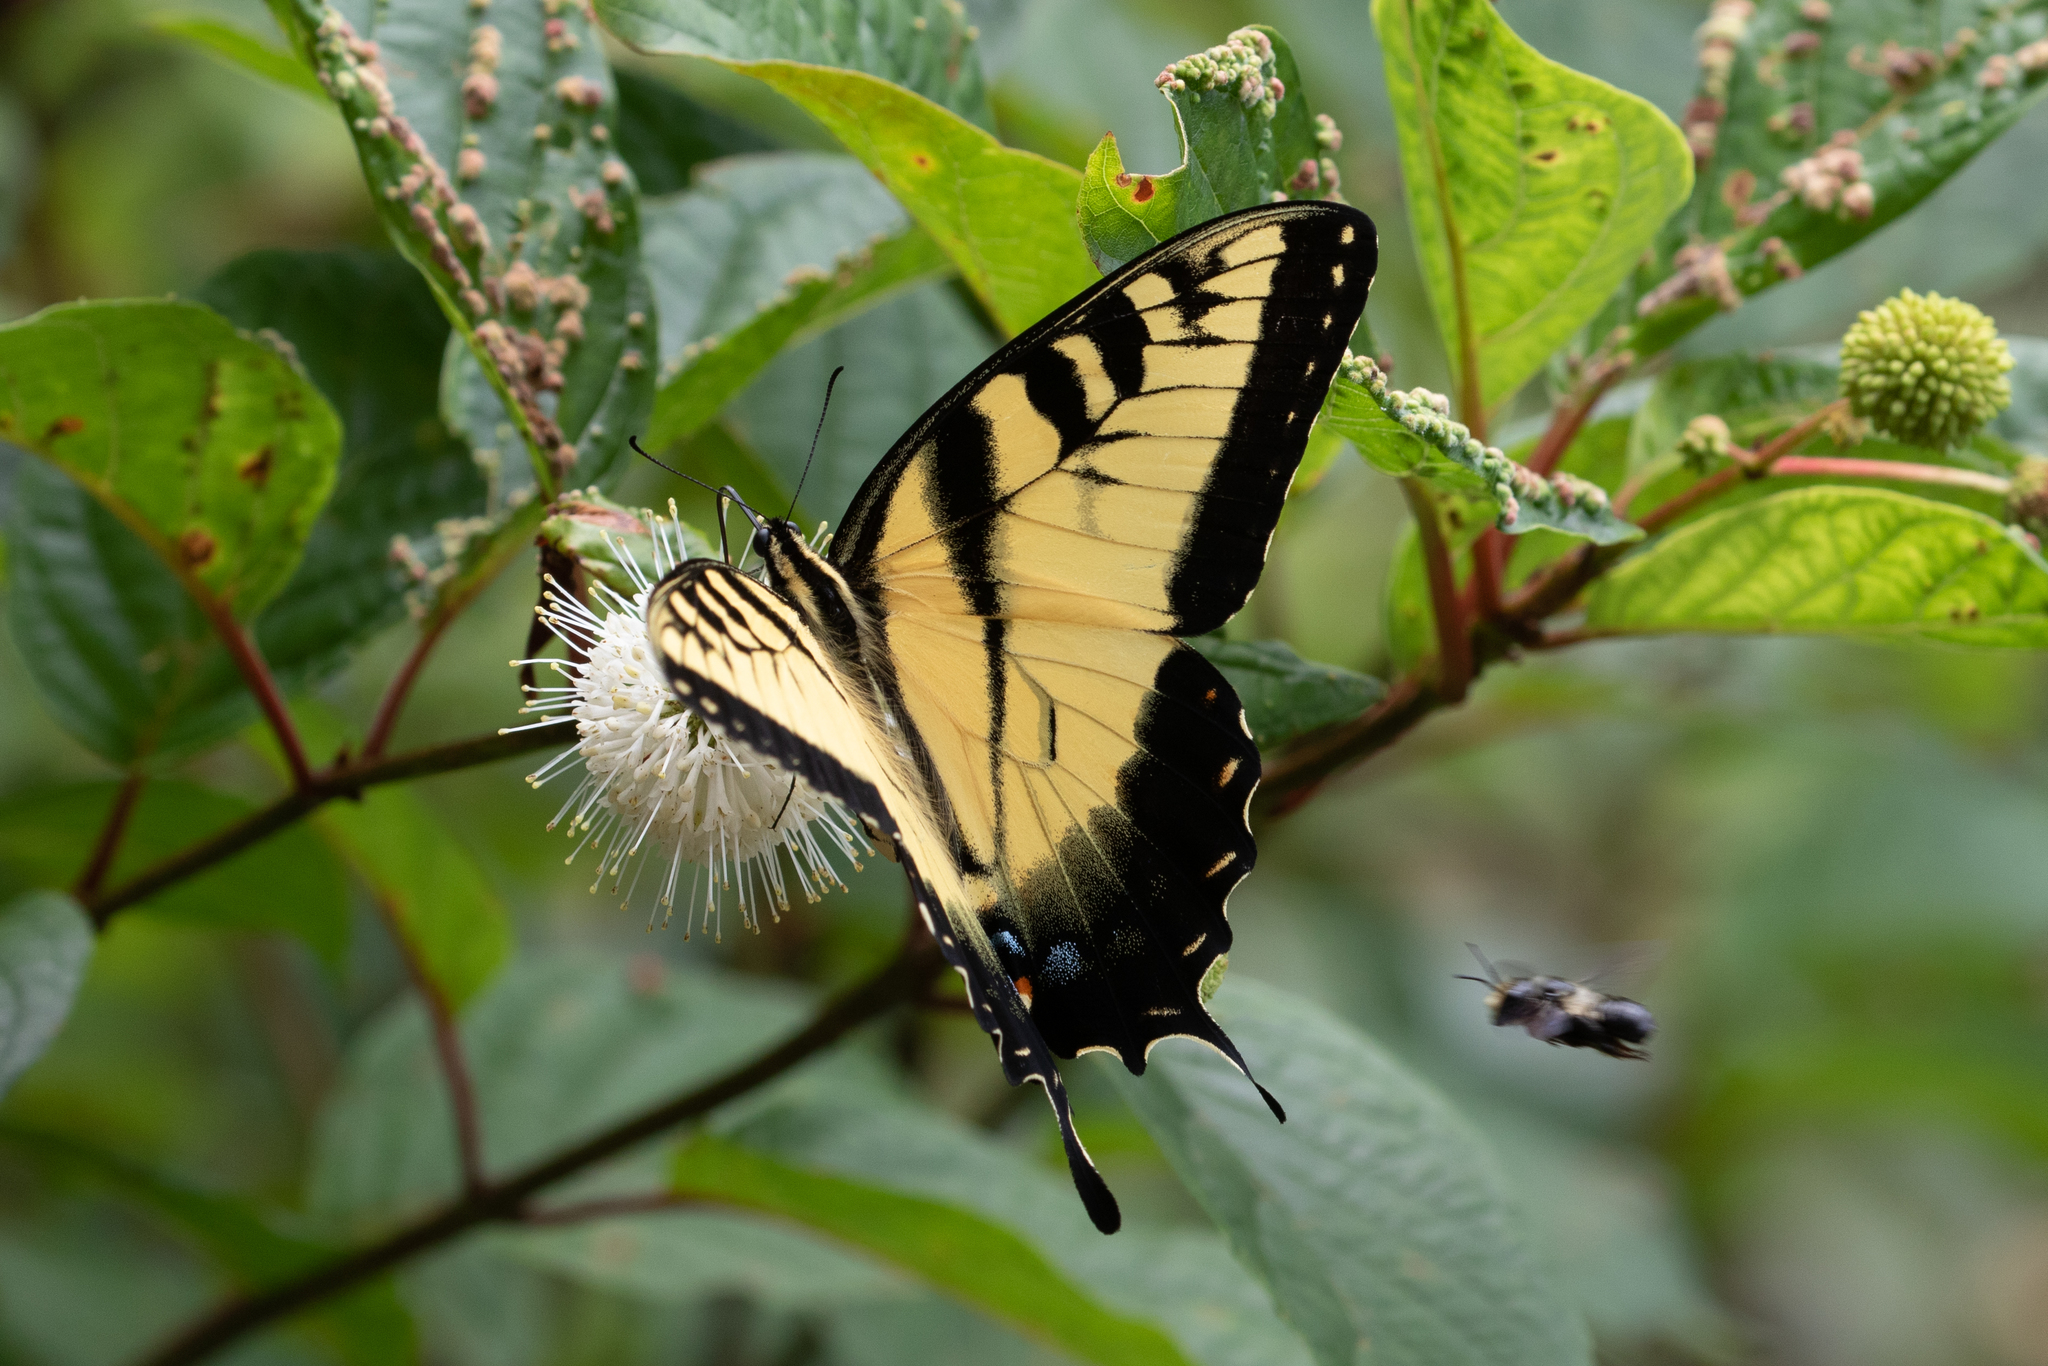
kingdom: Animalia
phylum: Arthropoda
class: Insecta
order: Lepidoptera
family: Papilionidae
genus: Papilio
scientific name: Papilio glaucus
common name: Tiger swallowtail
